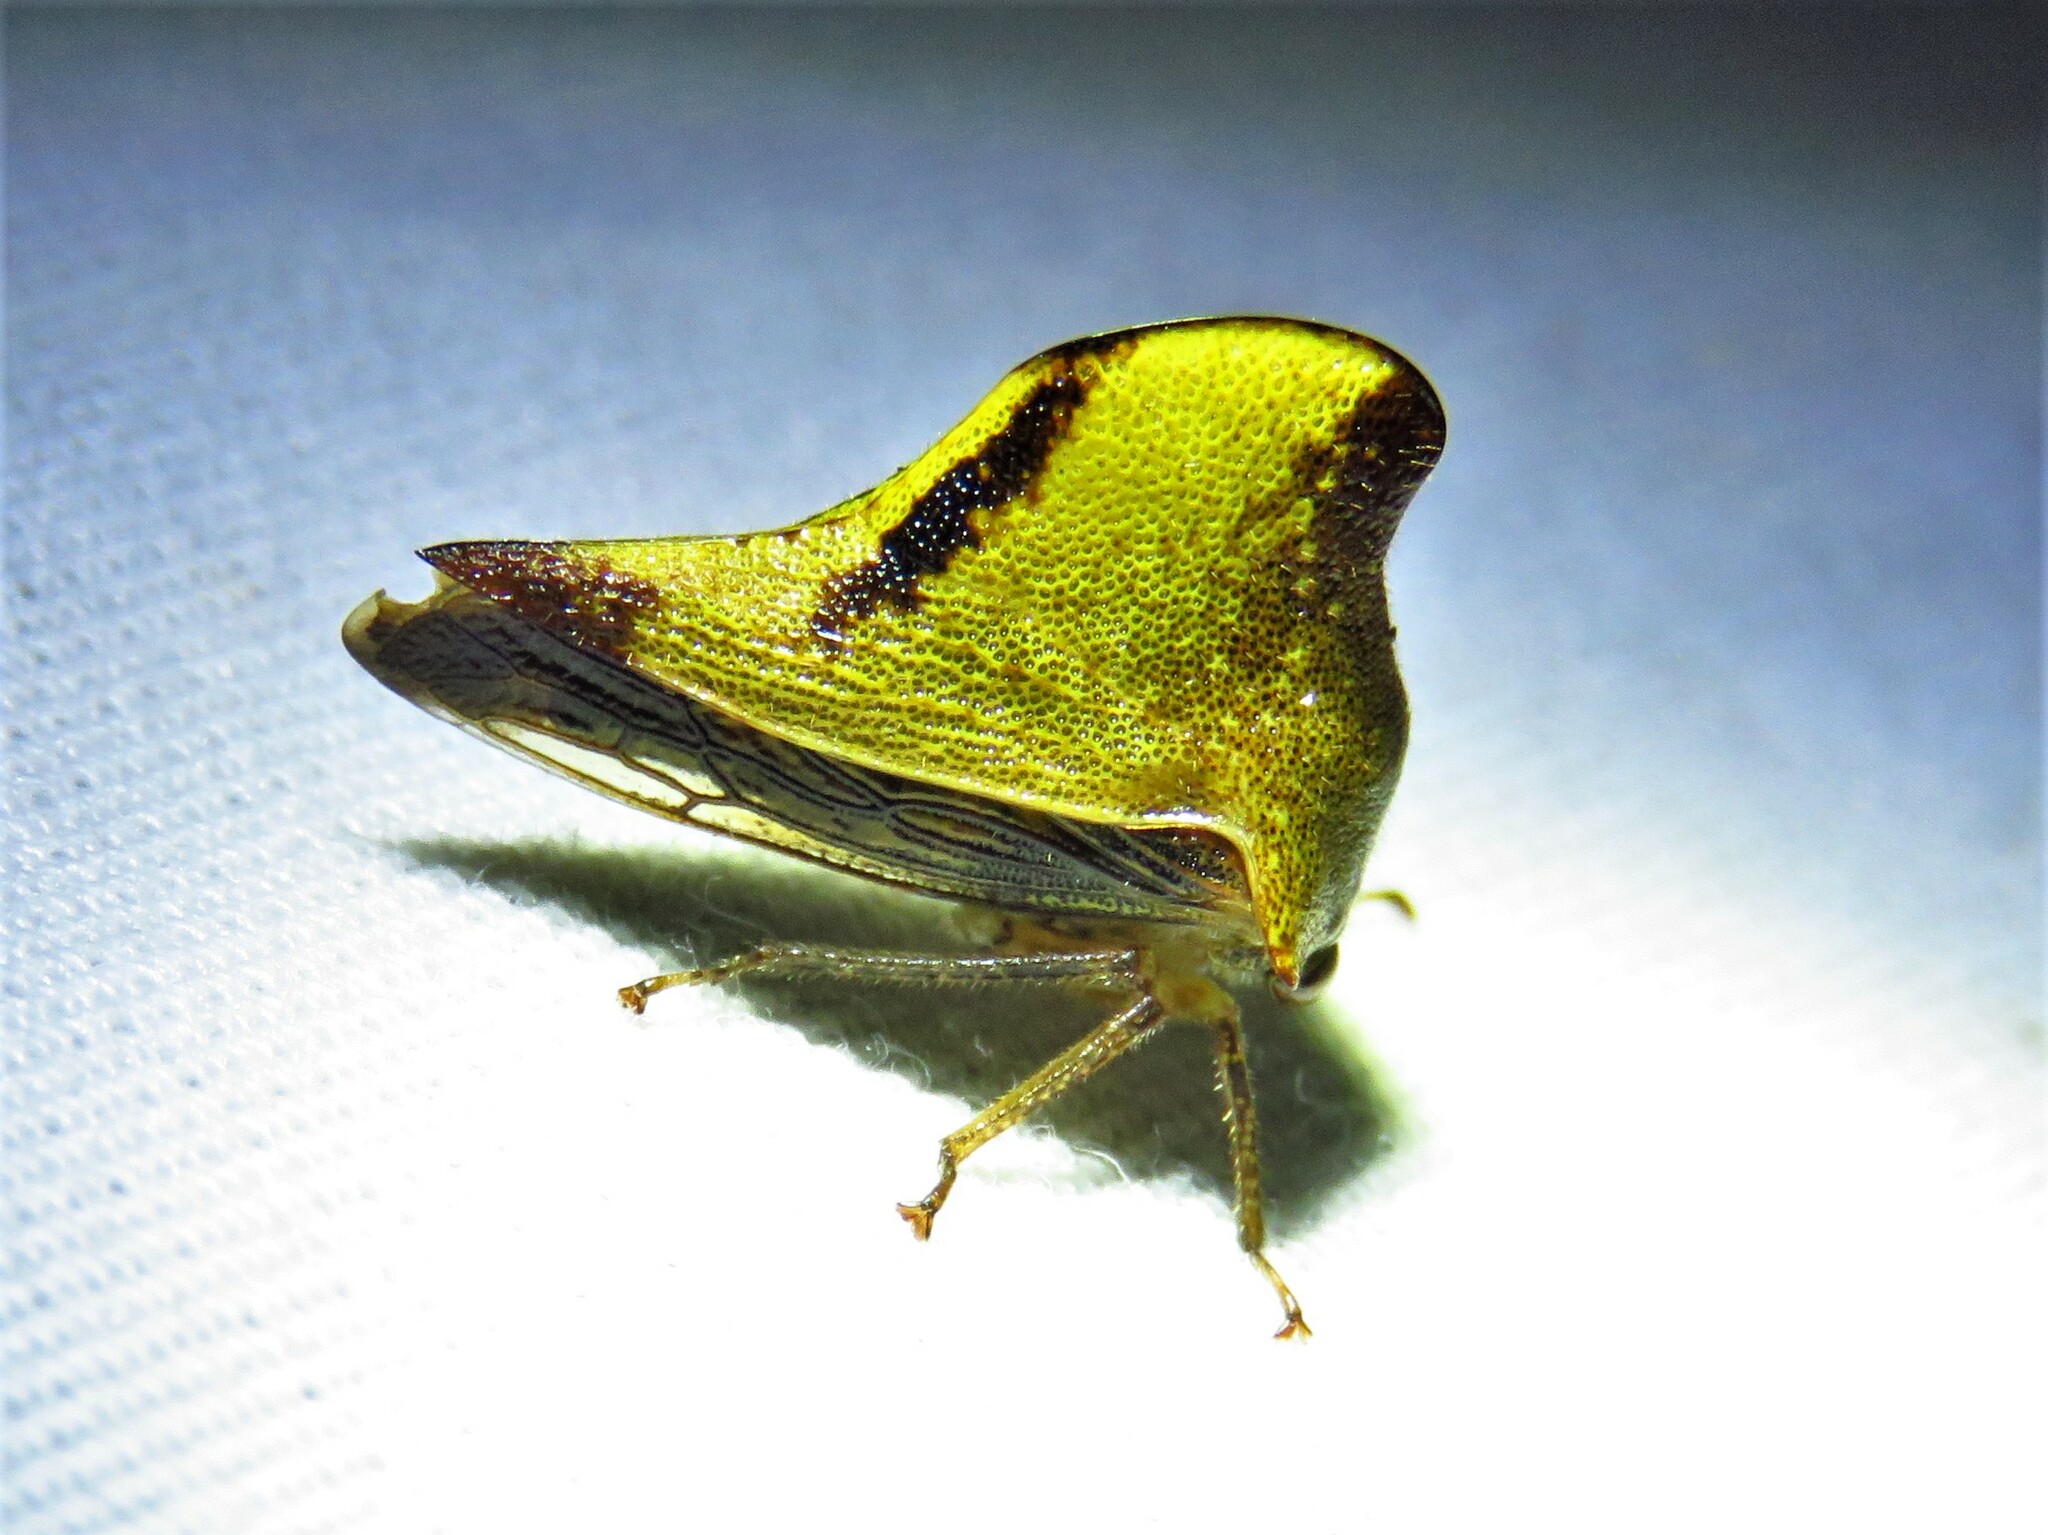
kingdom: Animalia
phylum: Arthropoda
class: Insecta
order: Hemiptera
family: Membracidae
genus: Helonica
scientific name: Helonica excelsa
